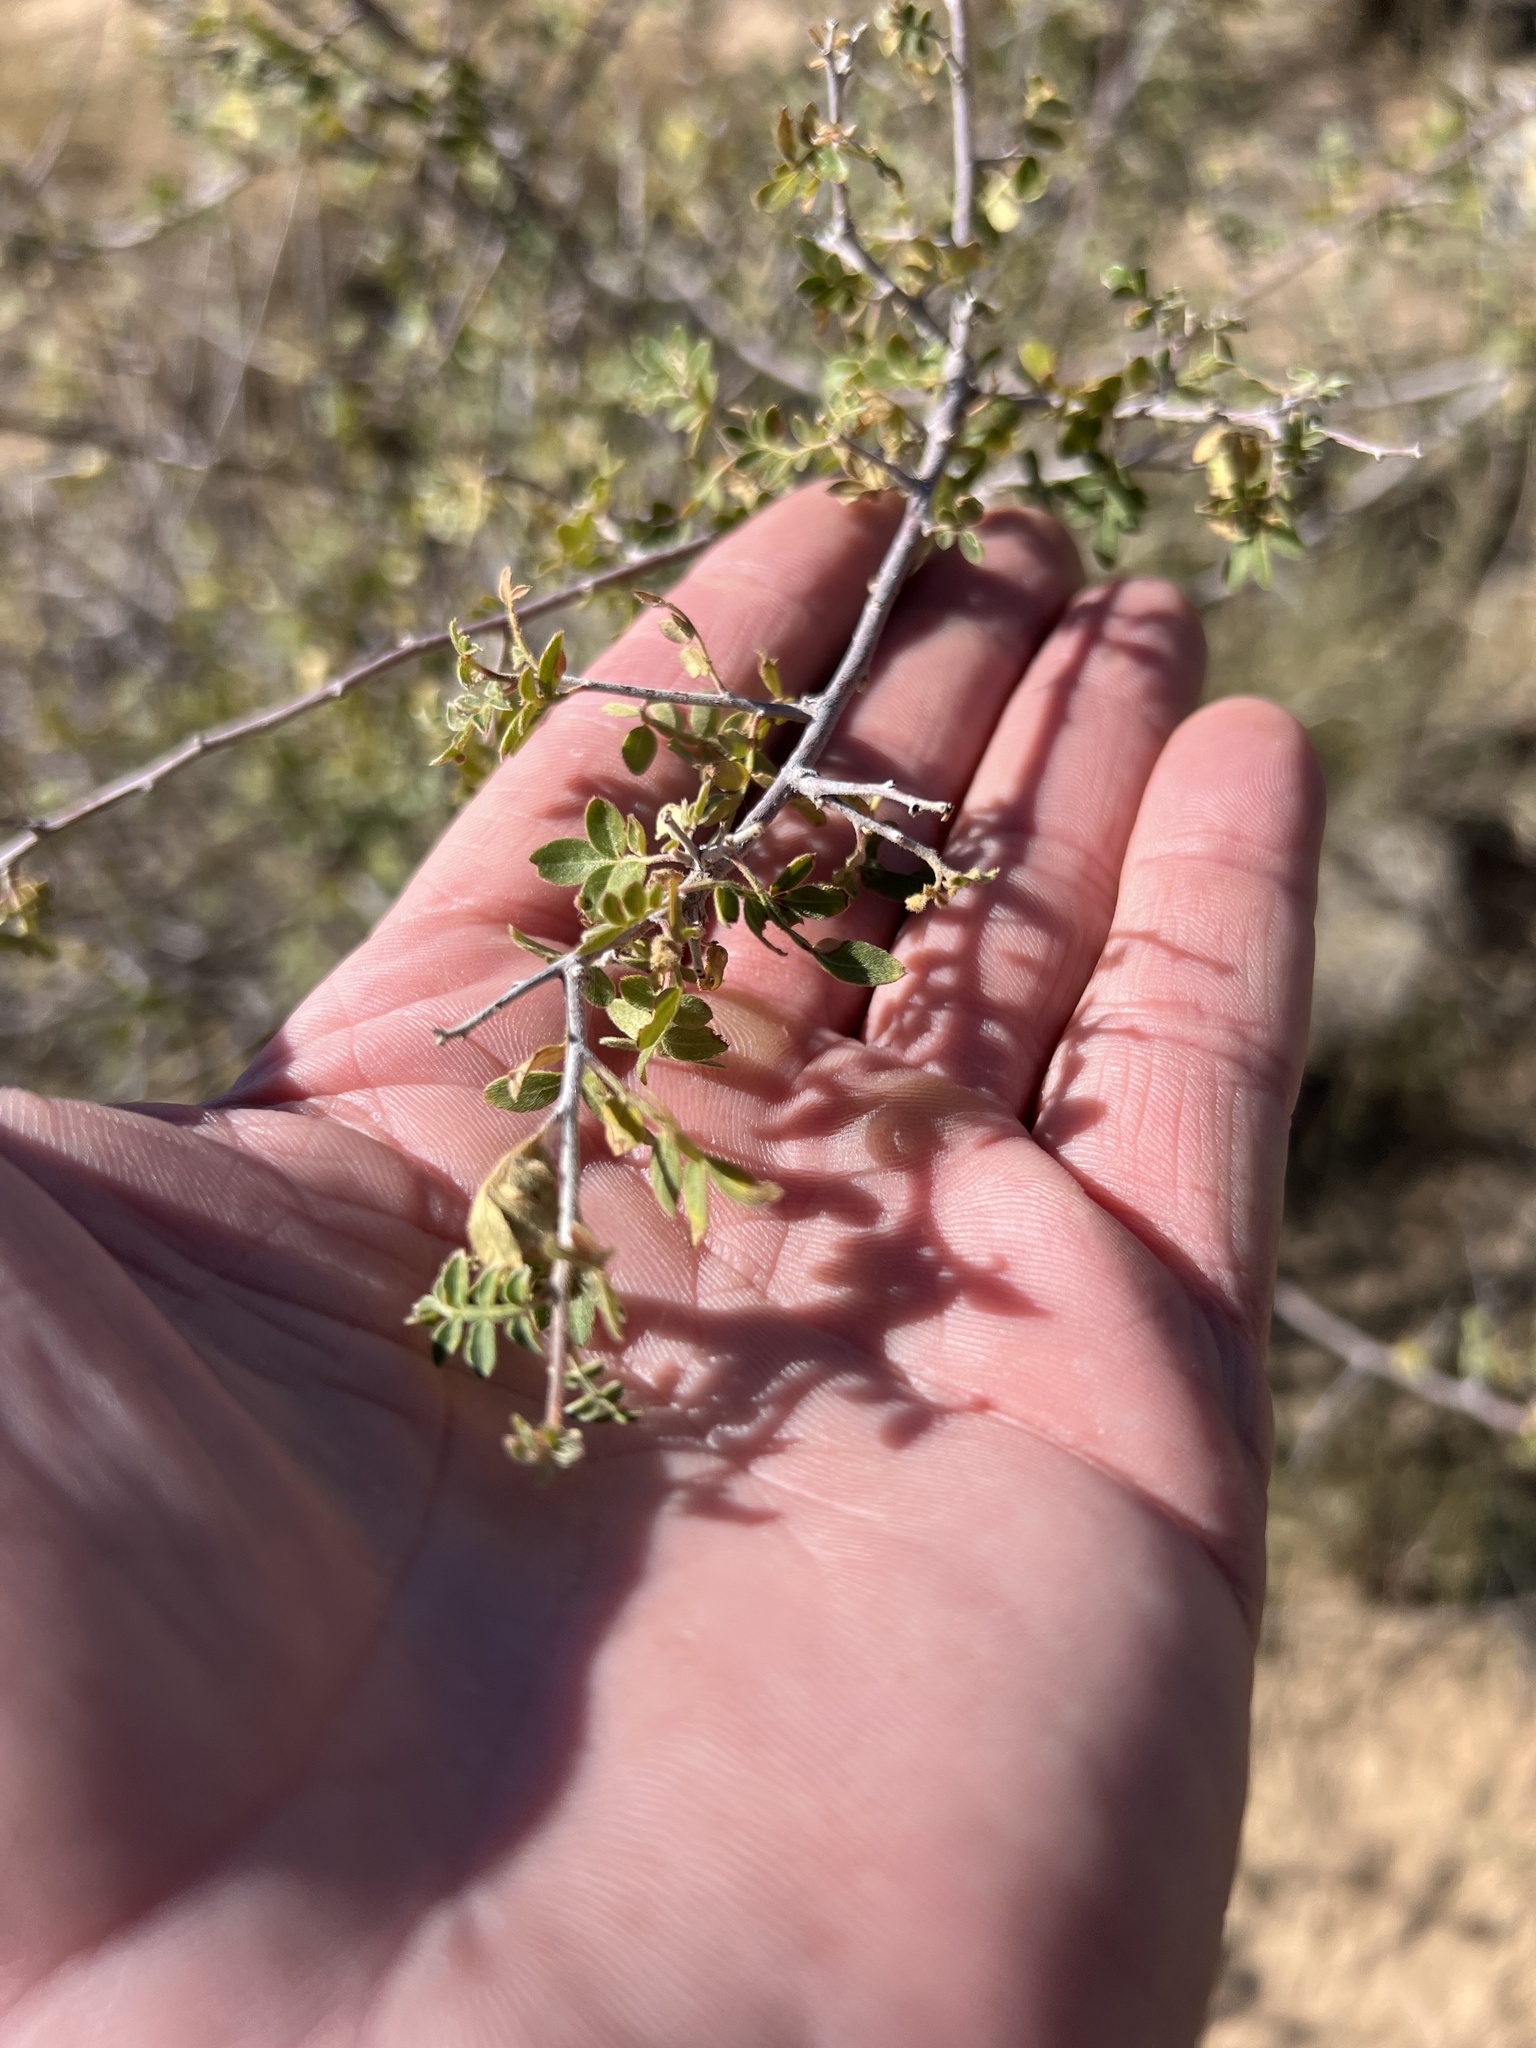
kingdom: Plantae
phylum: Tracheophyta
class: Magnoliopsida
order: Sapindales
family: Anacardiaceae
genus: Rhus
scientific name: Rhus microphylla
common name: Desert sumac
